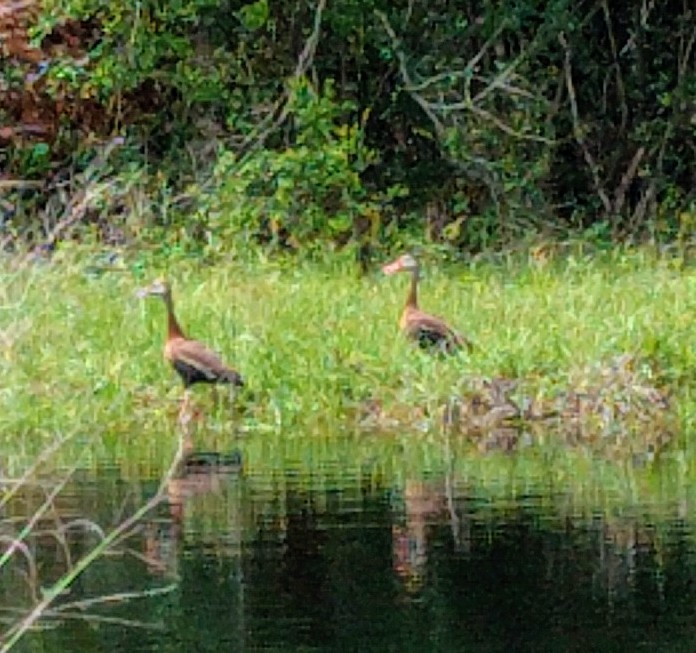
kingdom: Animalia
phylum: Chordata
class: Aves
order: Anseriformes
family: Anatidae
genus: Dendrocygna
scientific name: Dendrocygna autumnalis
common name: Black-bellied whistling duck
